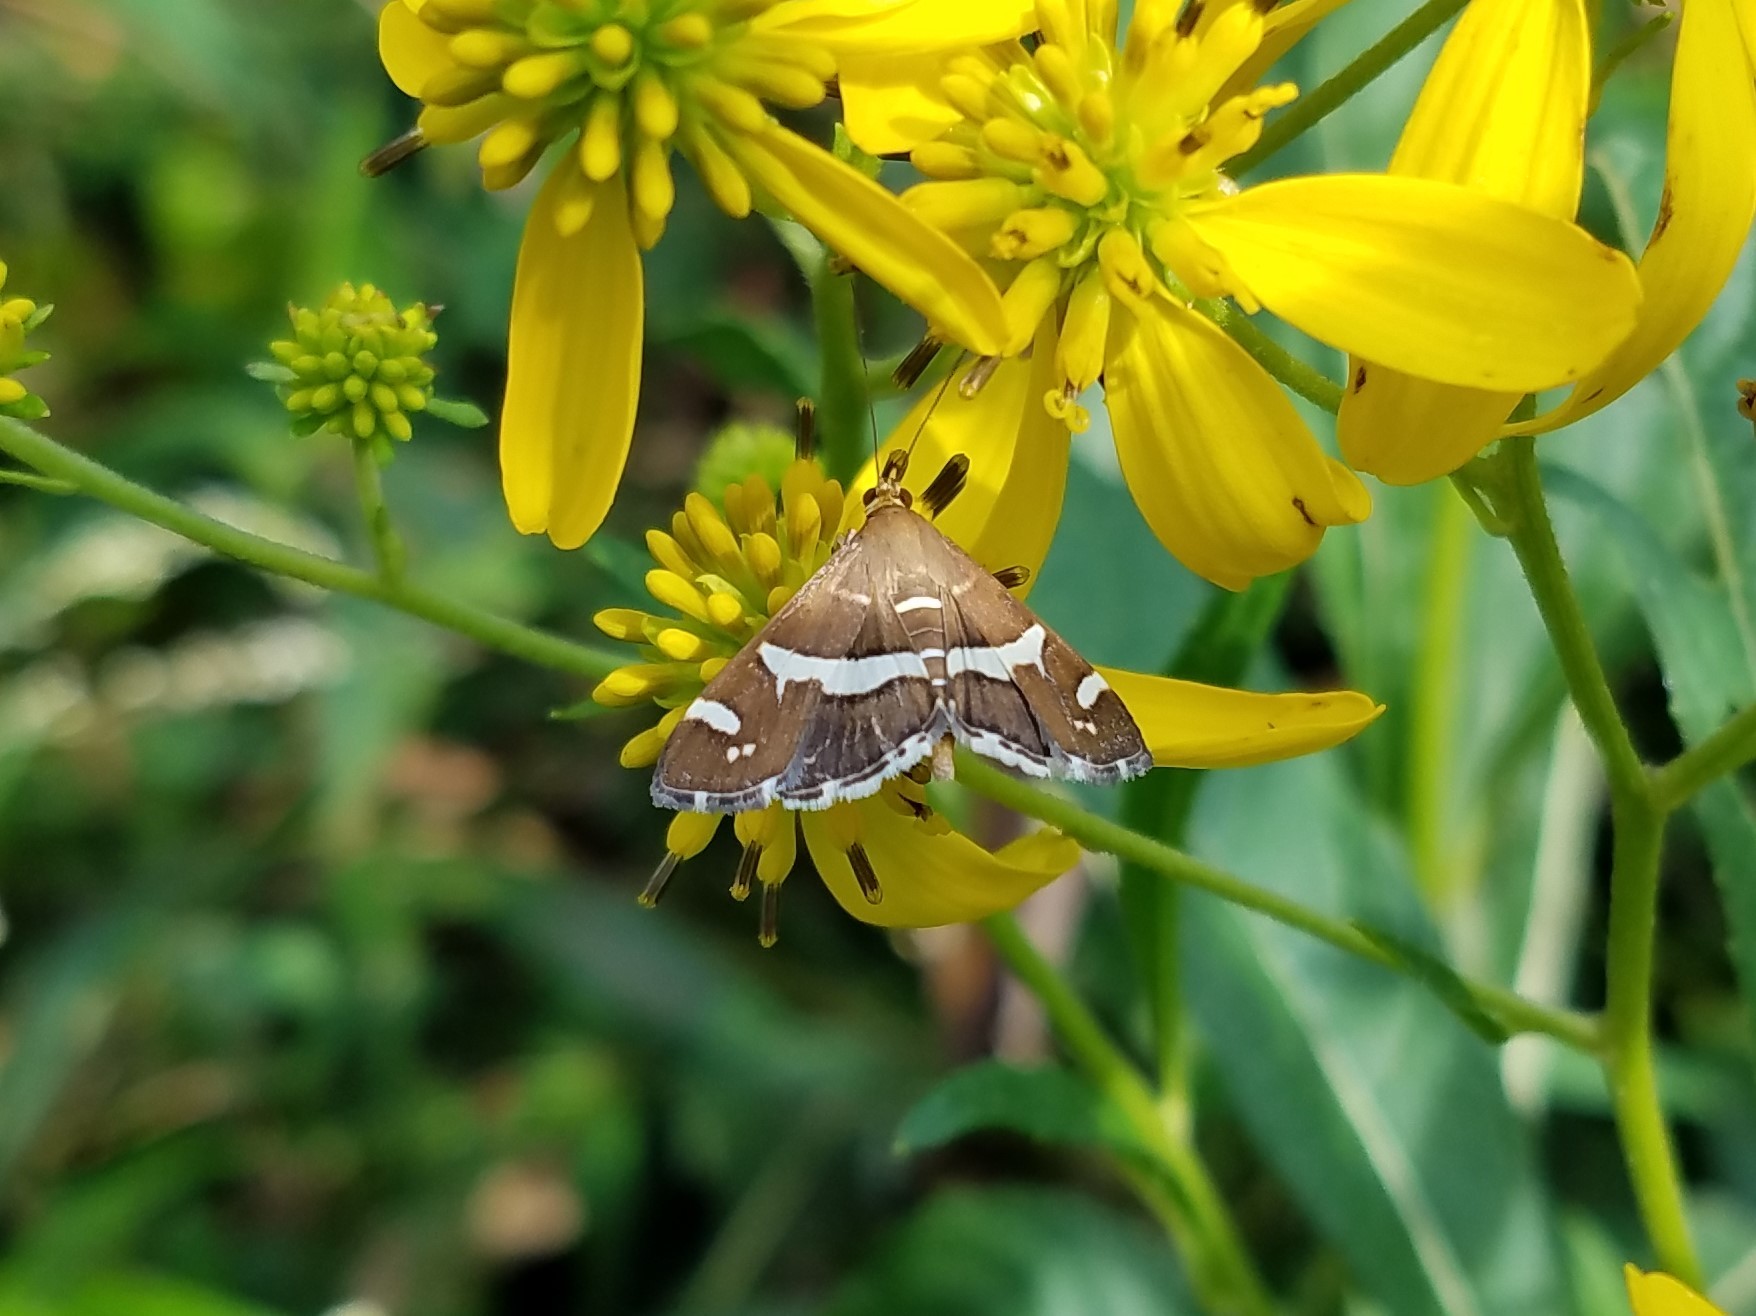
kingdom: Animalia
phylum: Arthropoda
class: Insecta
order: Lepidoptera
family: Crambidae
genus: Spoladea
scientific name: Spoladea recurvalis
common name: Beet webworm moth
